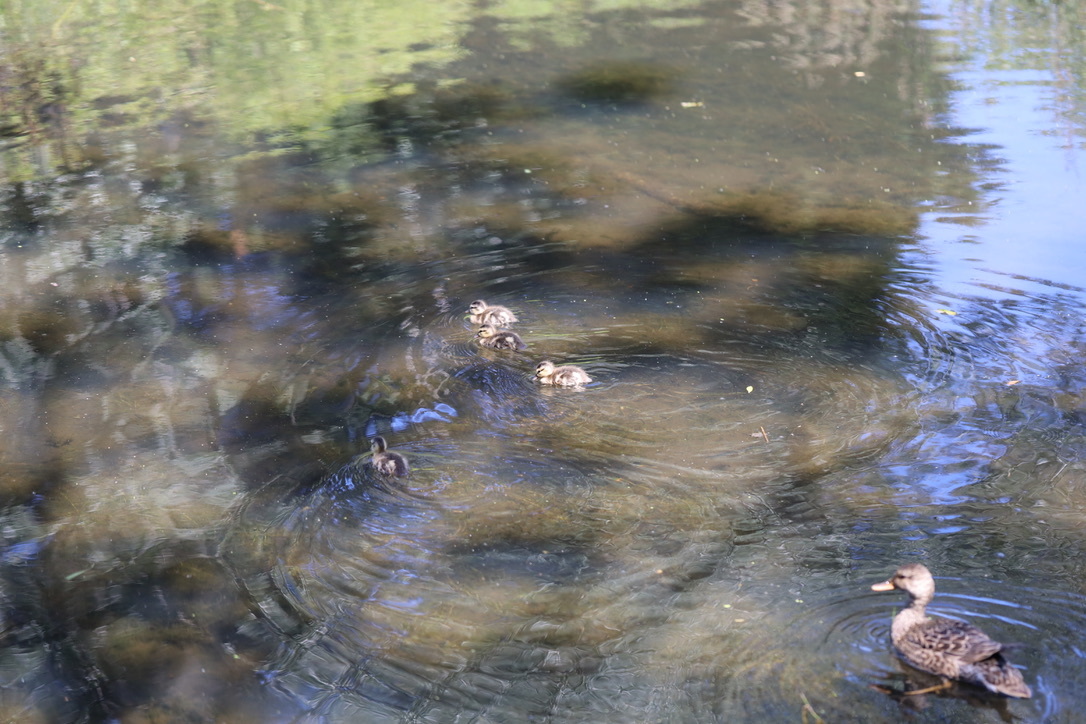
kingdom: Animalia
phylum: Chordata
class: Aves
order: Anseriformes
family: Anatidae
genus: Anas
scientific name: Anas platyrhynchos
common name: Mallard
